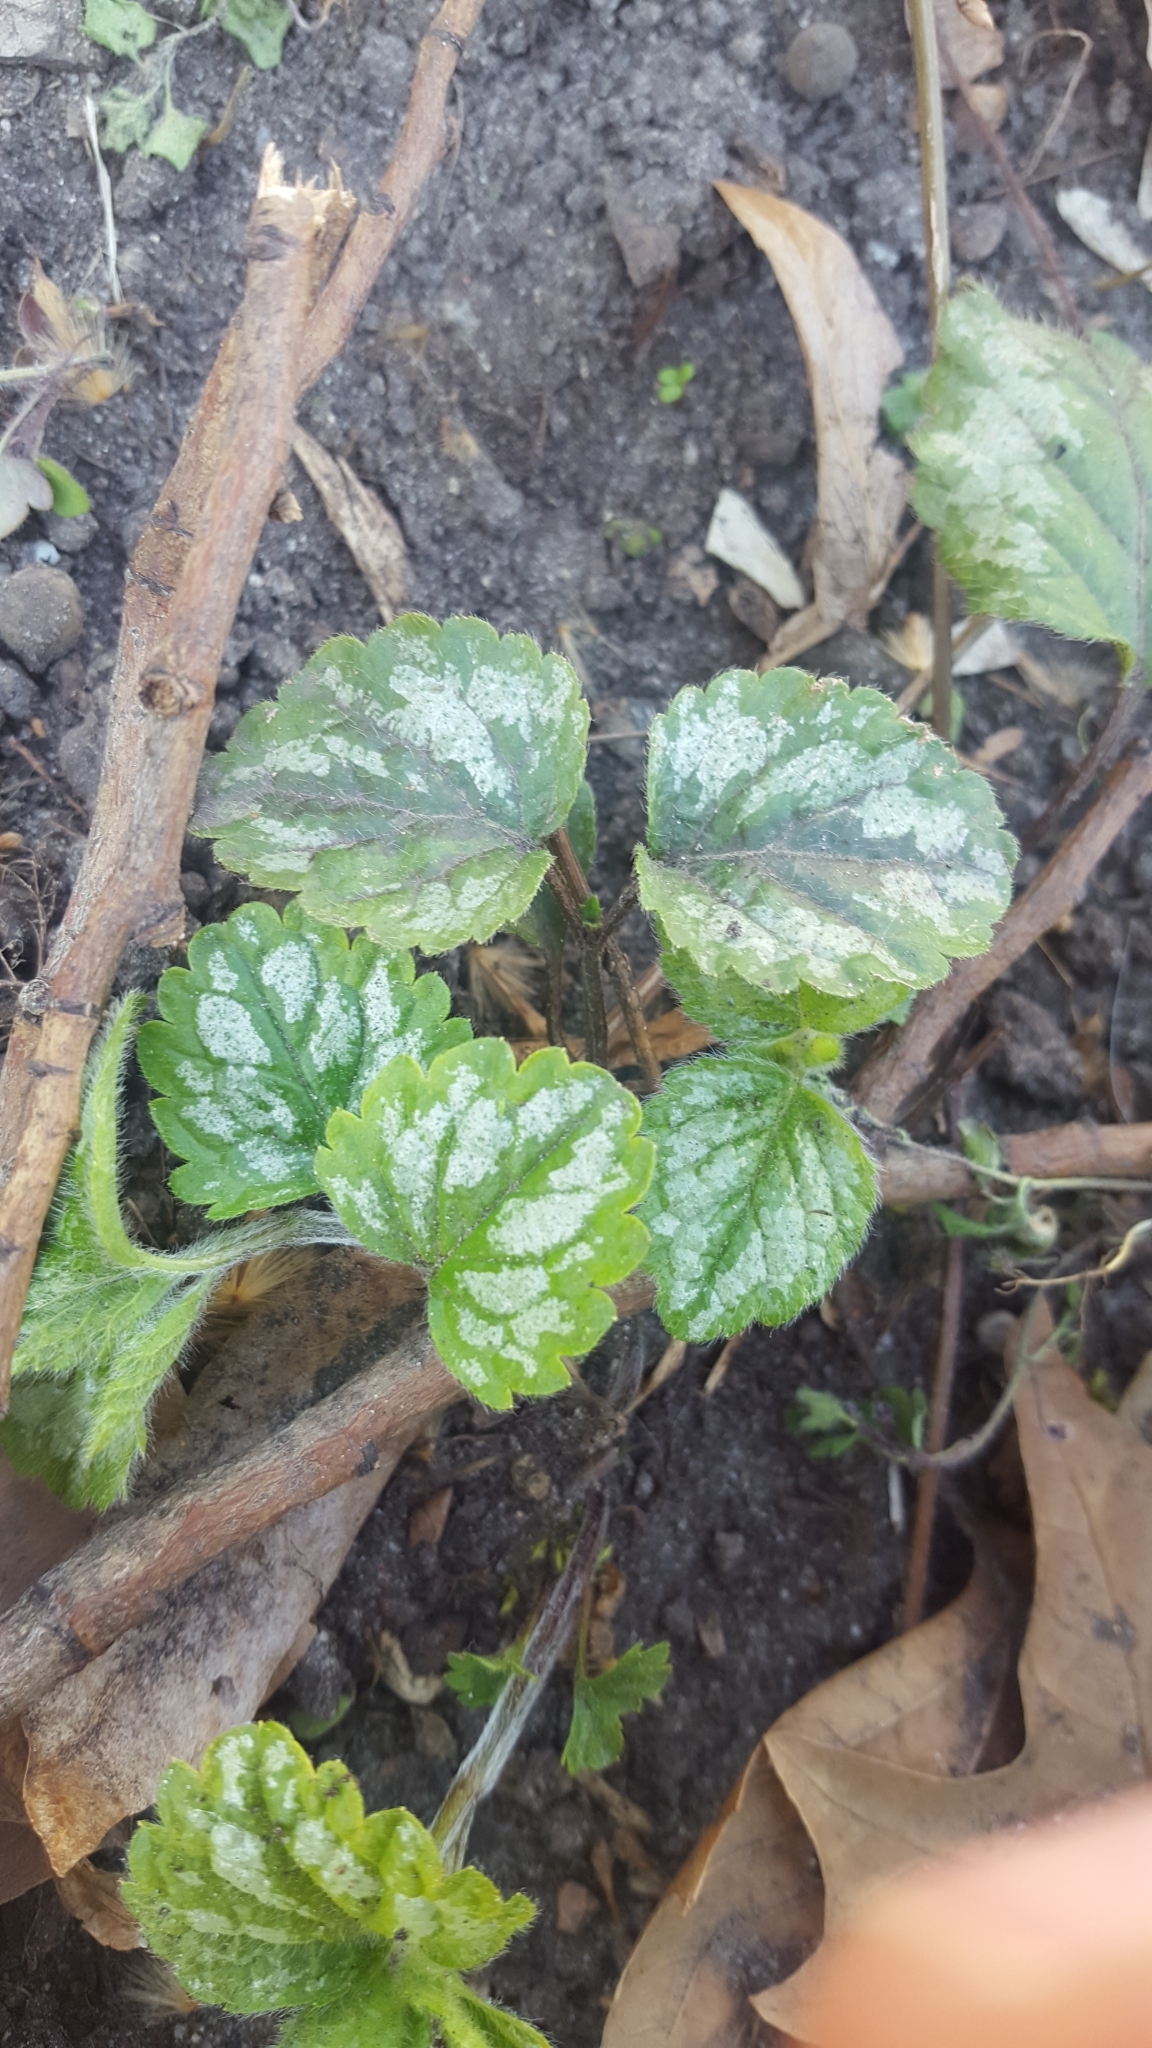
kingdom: Plantae
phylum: Tracheophyta
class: Magnoliopsida
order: Lamiales
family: Lamiaceae
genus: Lamium
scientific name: Lamium galeobdolon
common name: Yellow archangel
